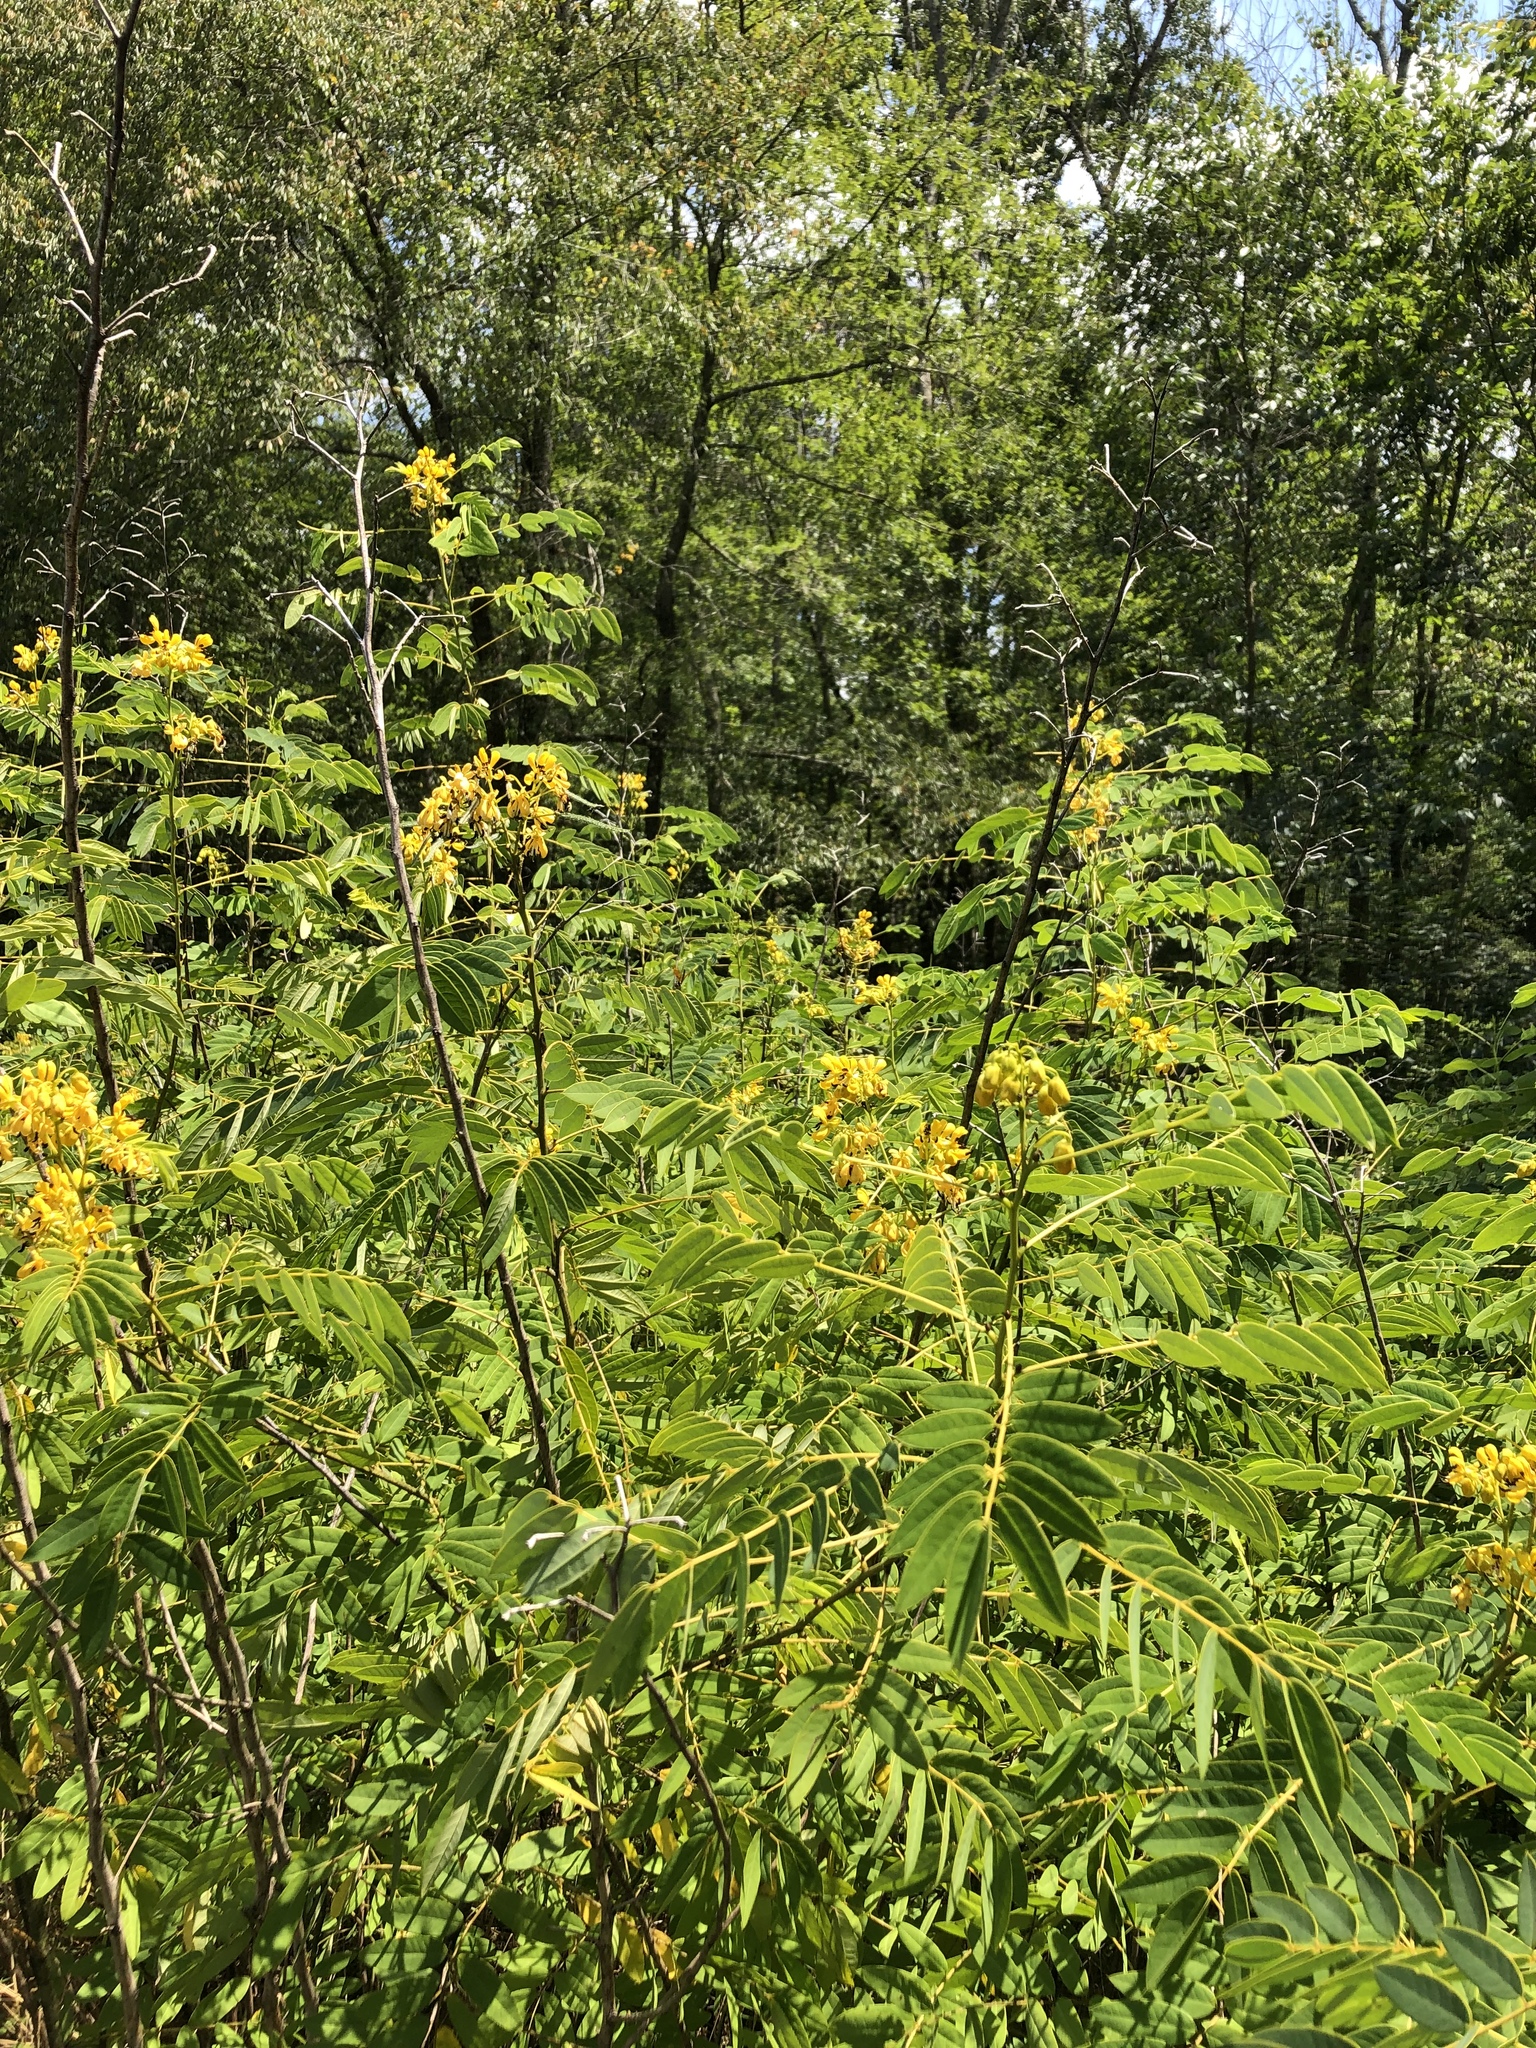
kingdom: Plantae
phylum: Tracheophyta
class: Magnoliopsida
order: Fabales
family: Fabaceae
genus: Senna
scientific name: Senna hebecarpa
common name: Wild senna
